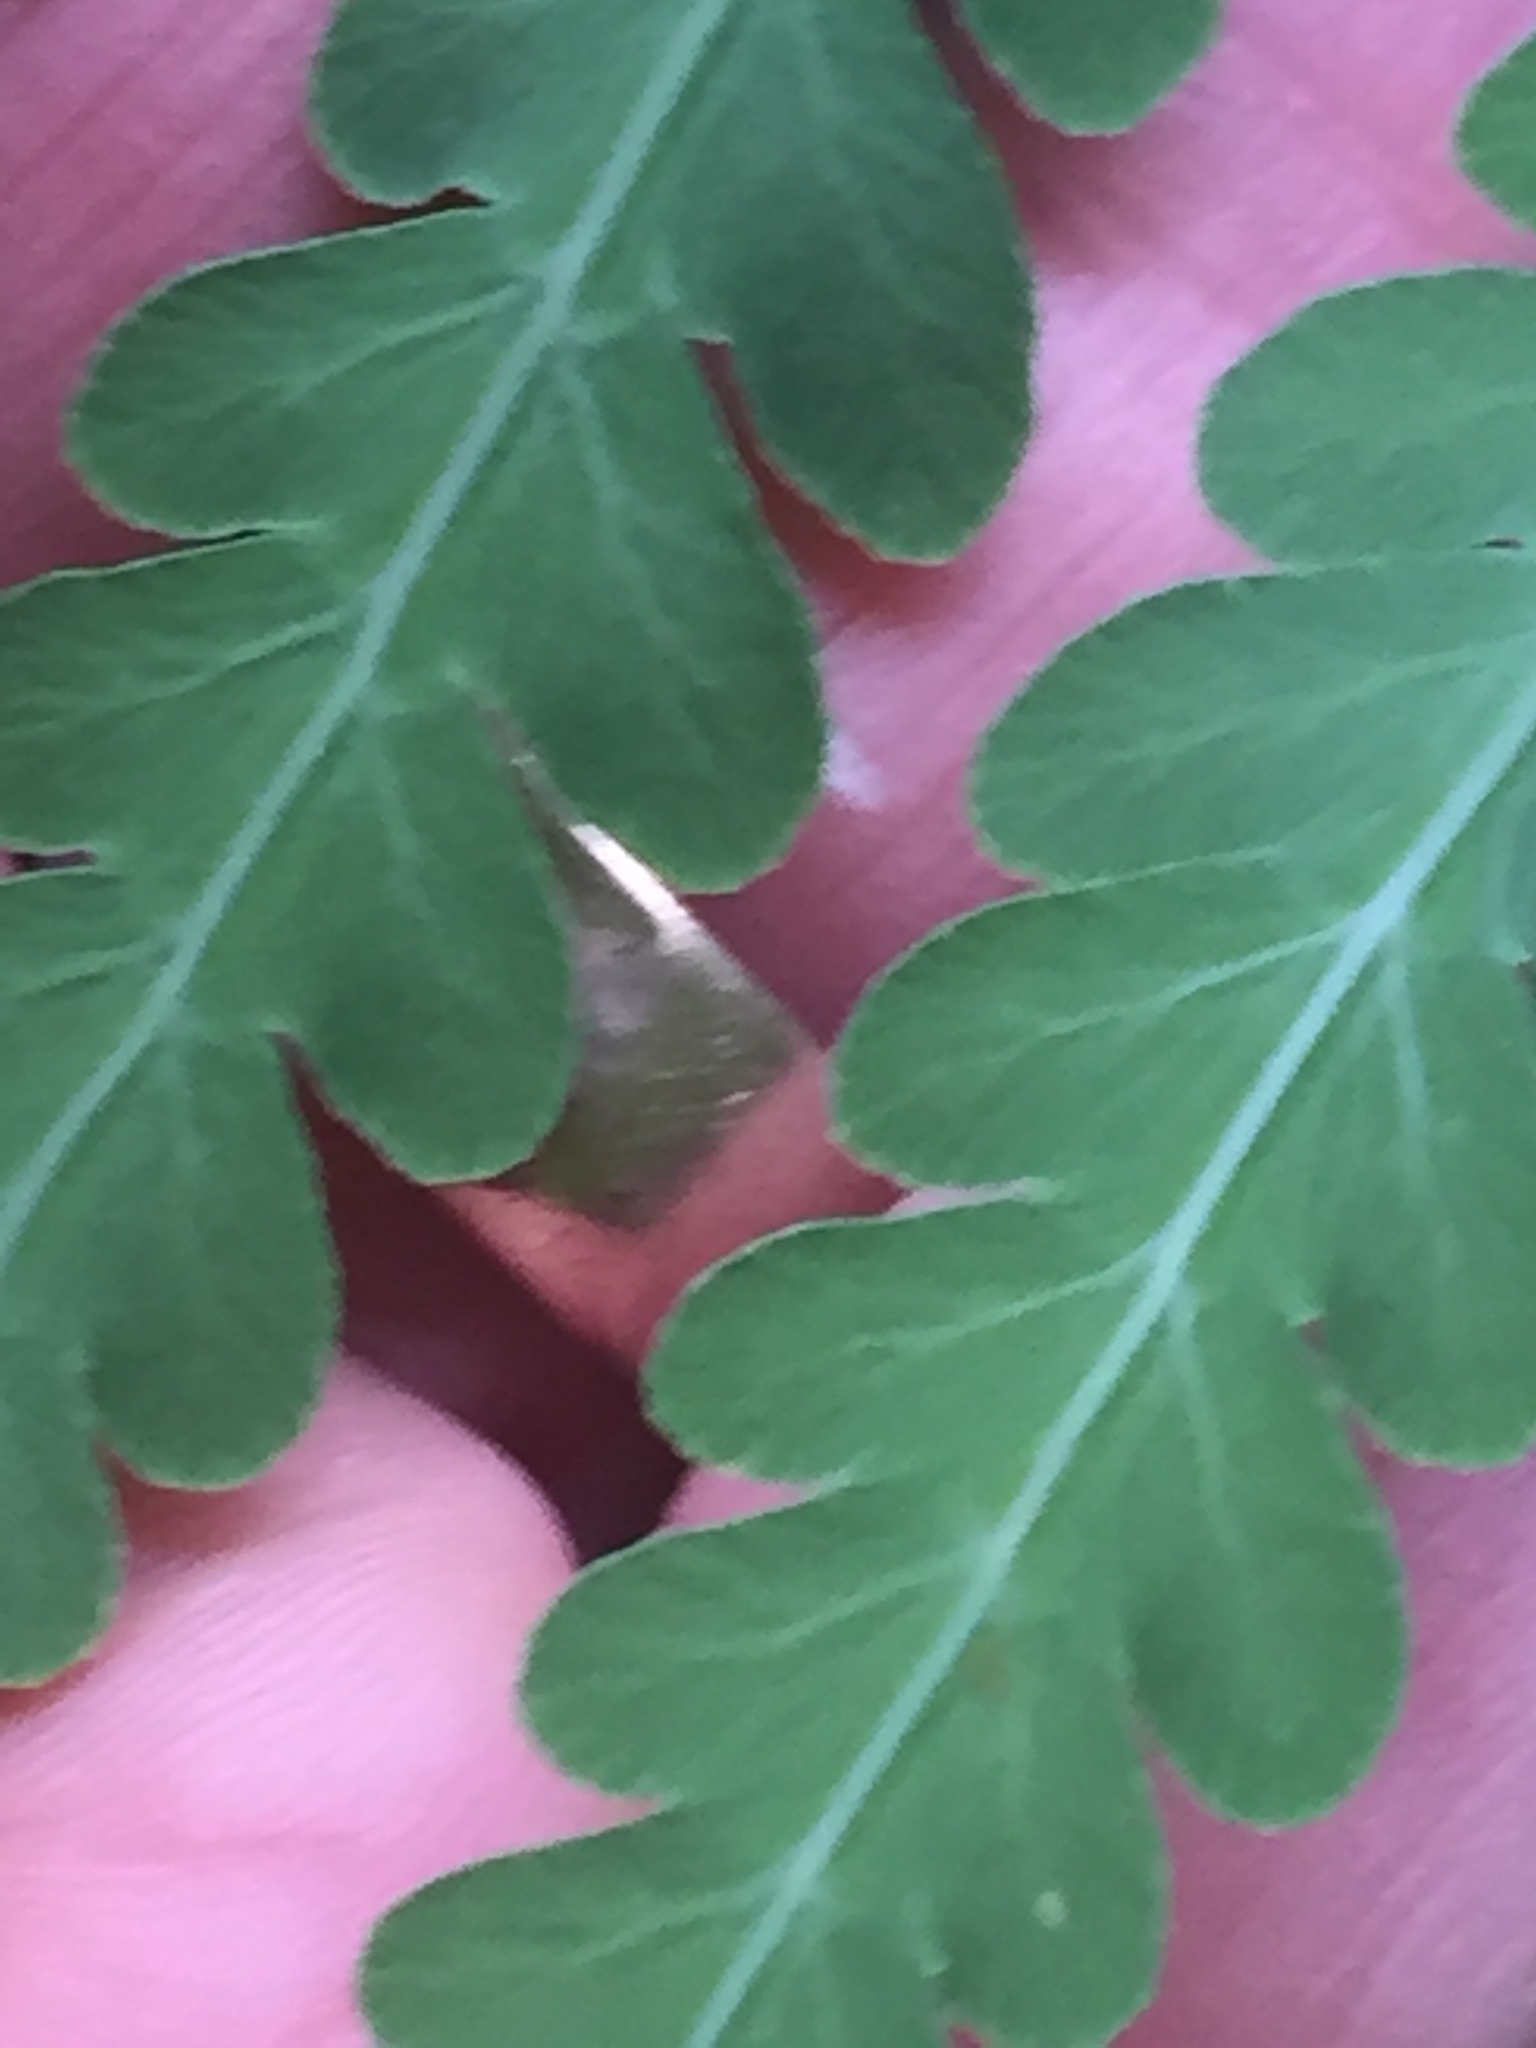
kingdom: Plantae
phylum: Tracheophyta
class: Polypodiopsida
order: Polypodiales
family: Dennstaedtiaceae
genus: Histiopteris
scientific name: Histiopteris incisa
